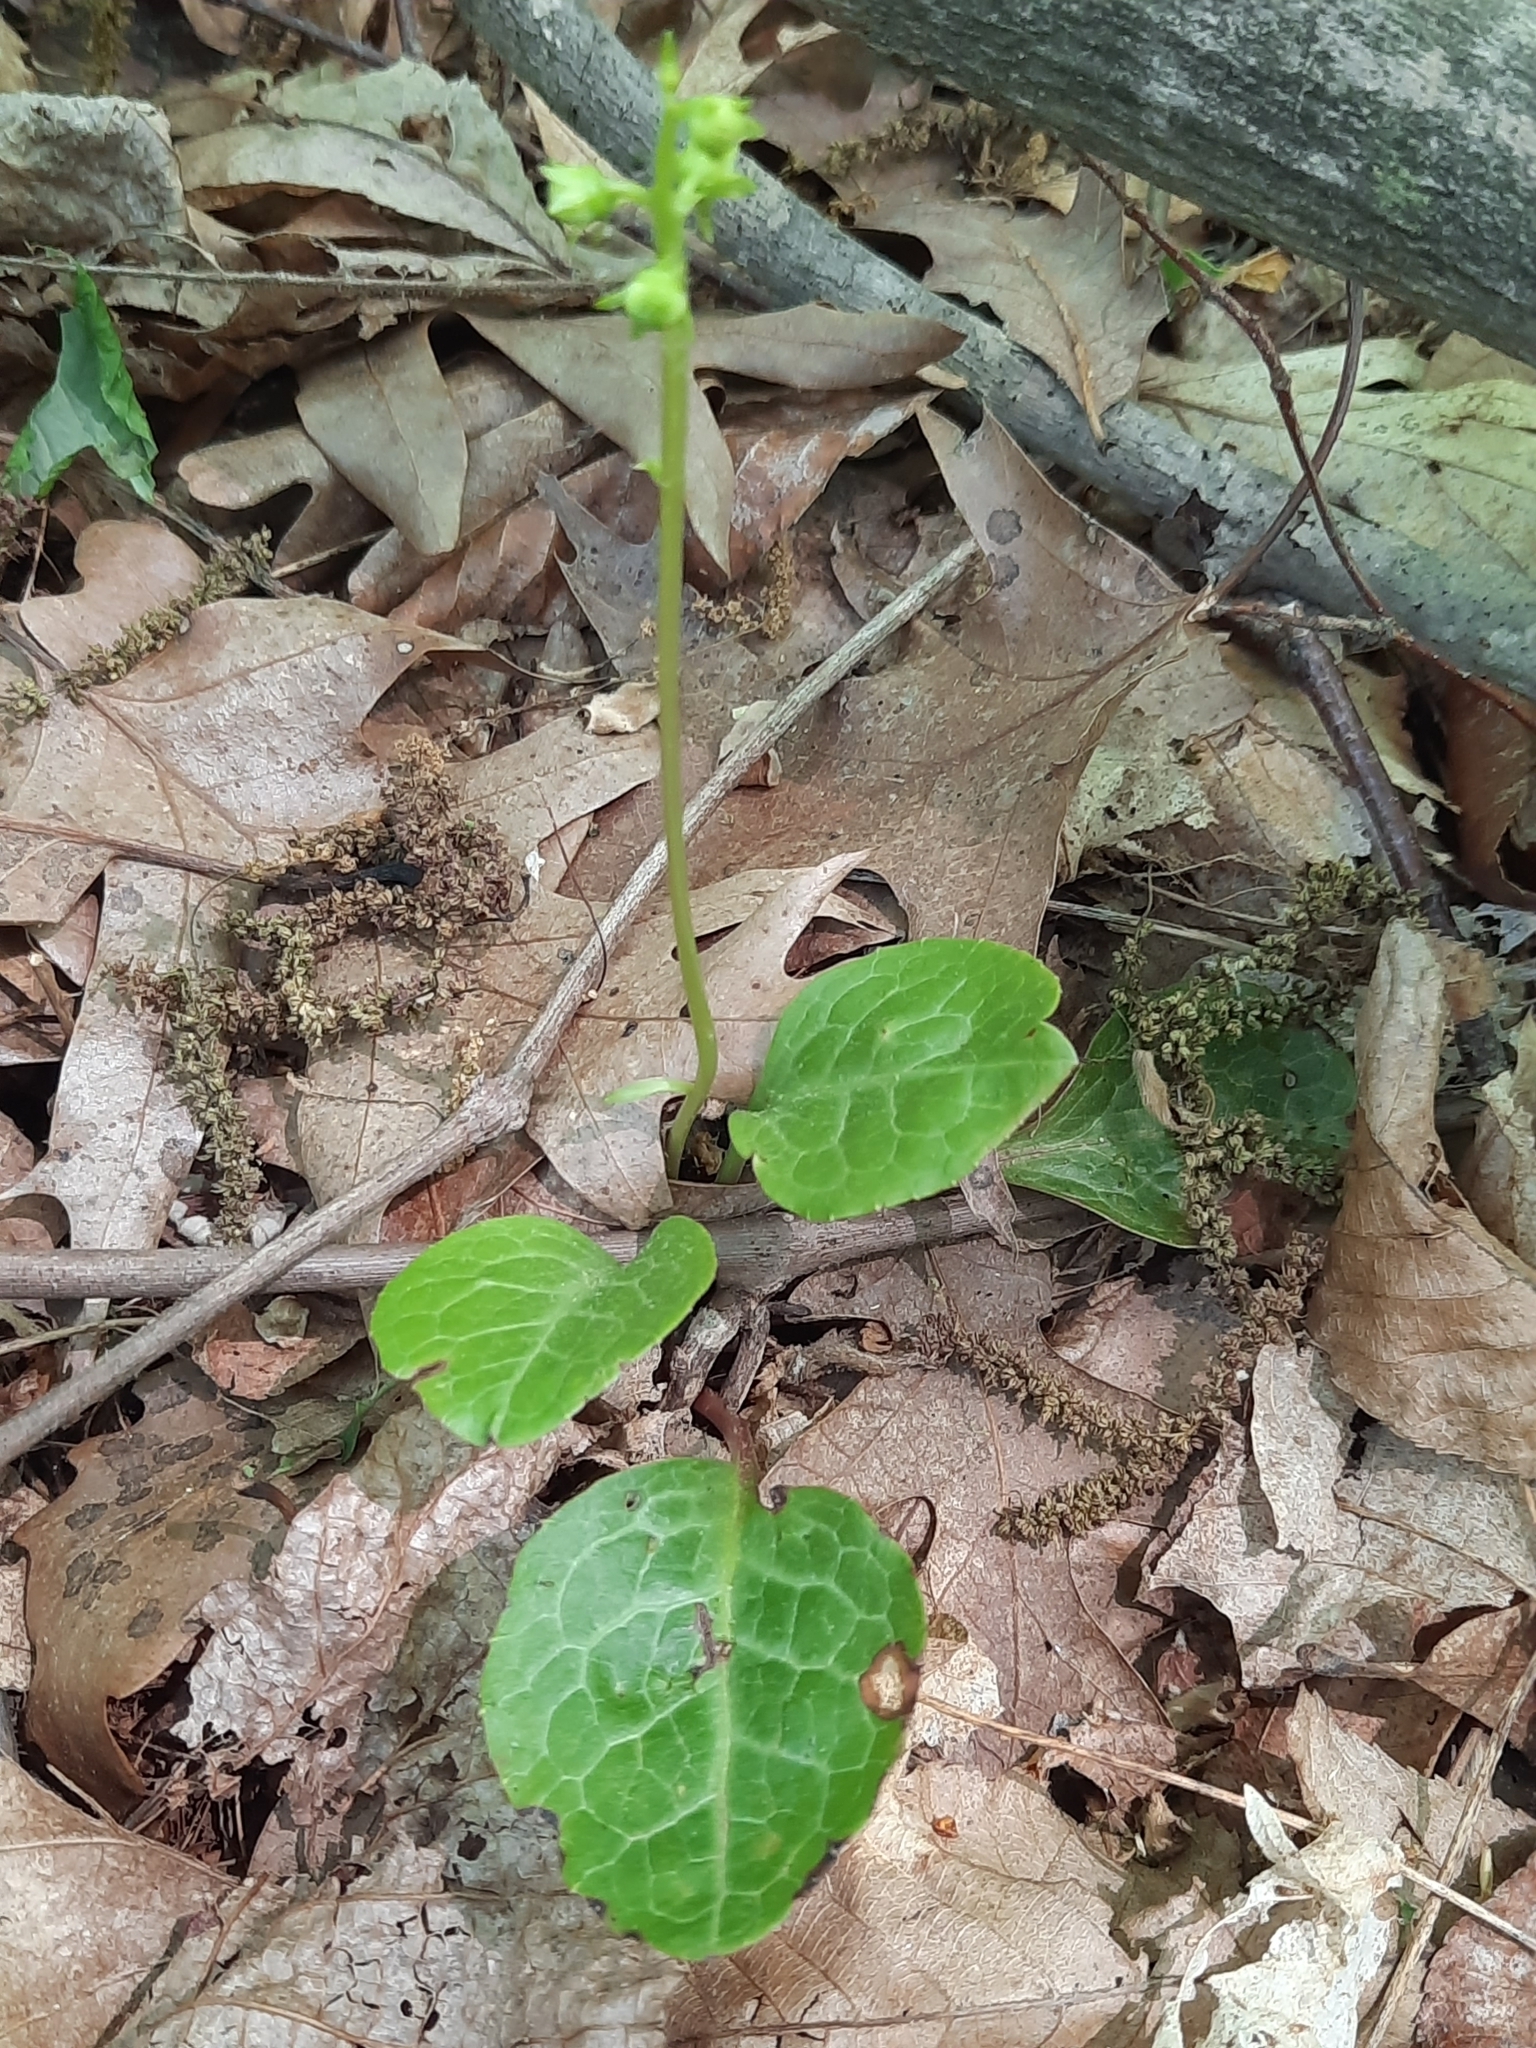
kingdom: Plantae
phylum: Tracheophyta
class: Magnoliopsida
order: Ericales
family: Ericaceae
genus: Pyrola
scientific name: Pyrola americana
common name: American wintergreen
